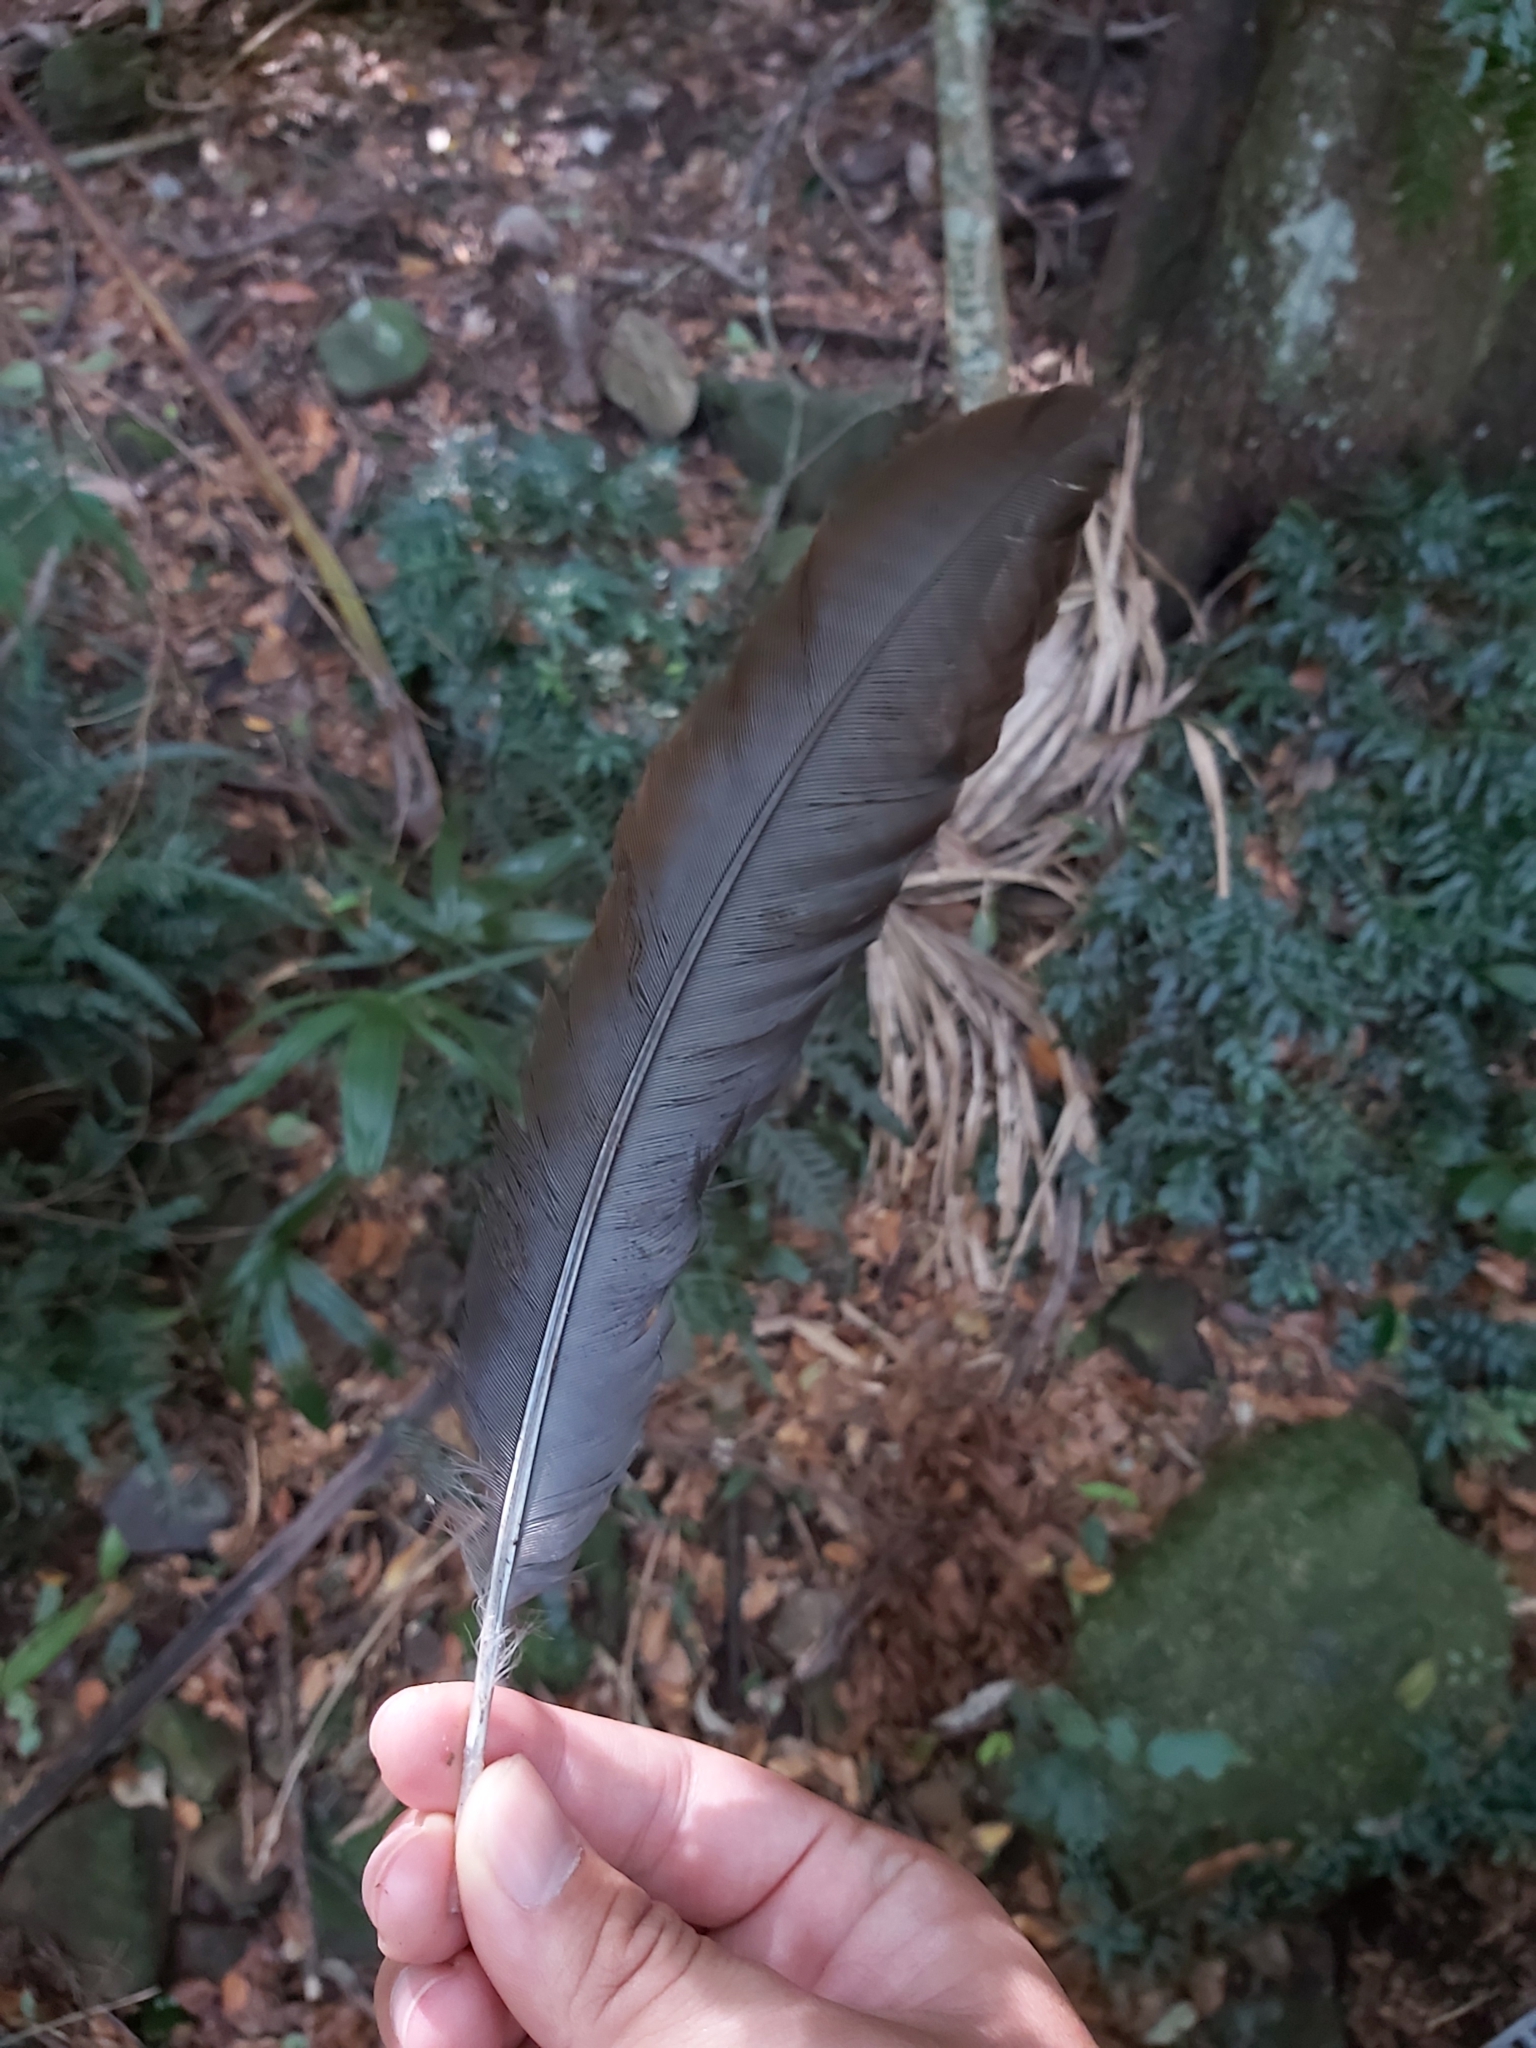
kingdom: Animalia
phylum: Chordata
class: Aves
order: Passeriformes
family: Menuridae
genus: Menura
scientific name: Menura novaehollandiae
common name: Superb lyrebird
